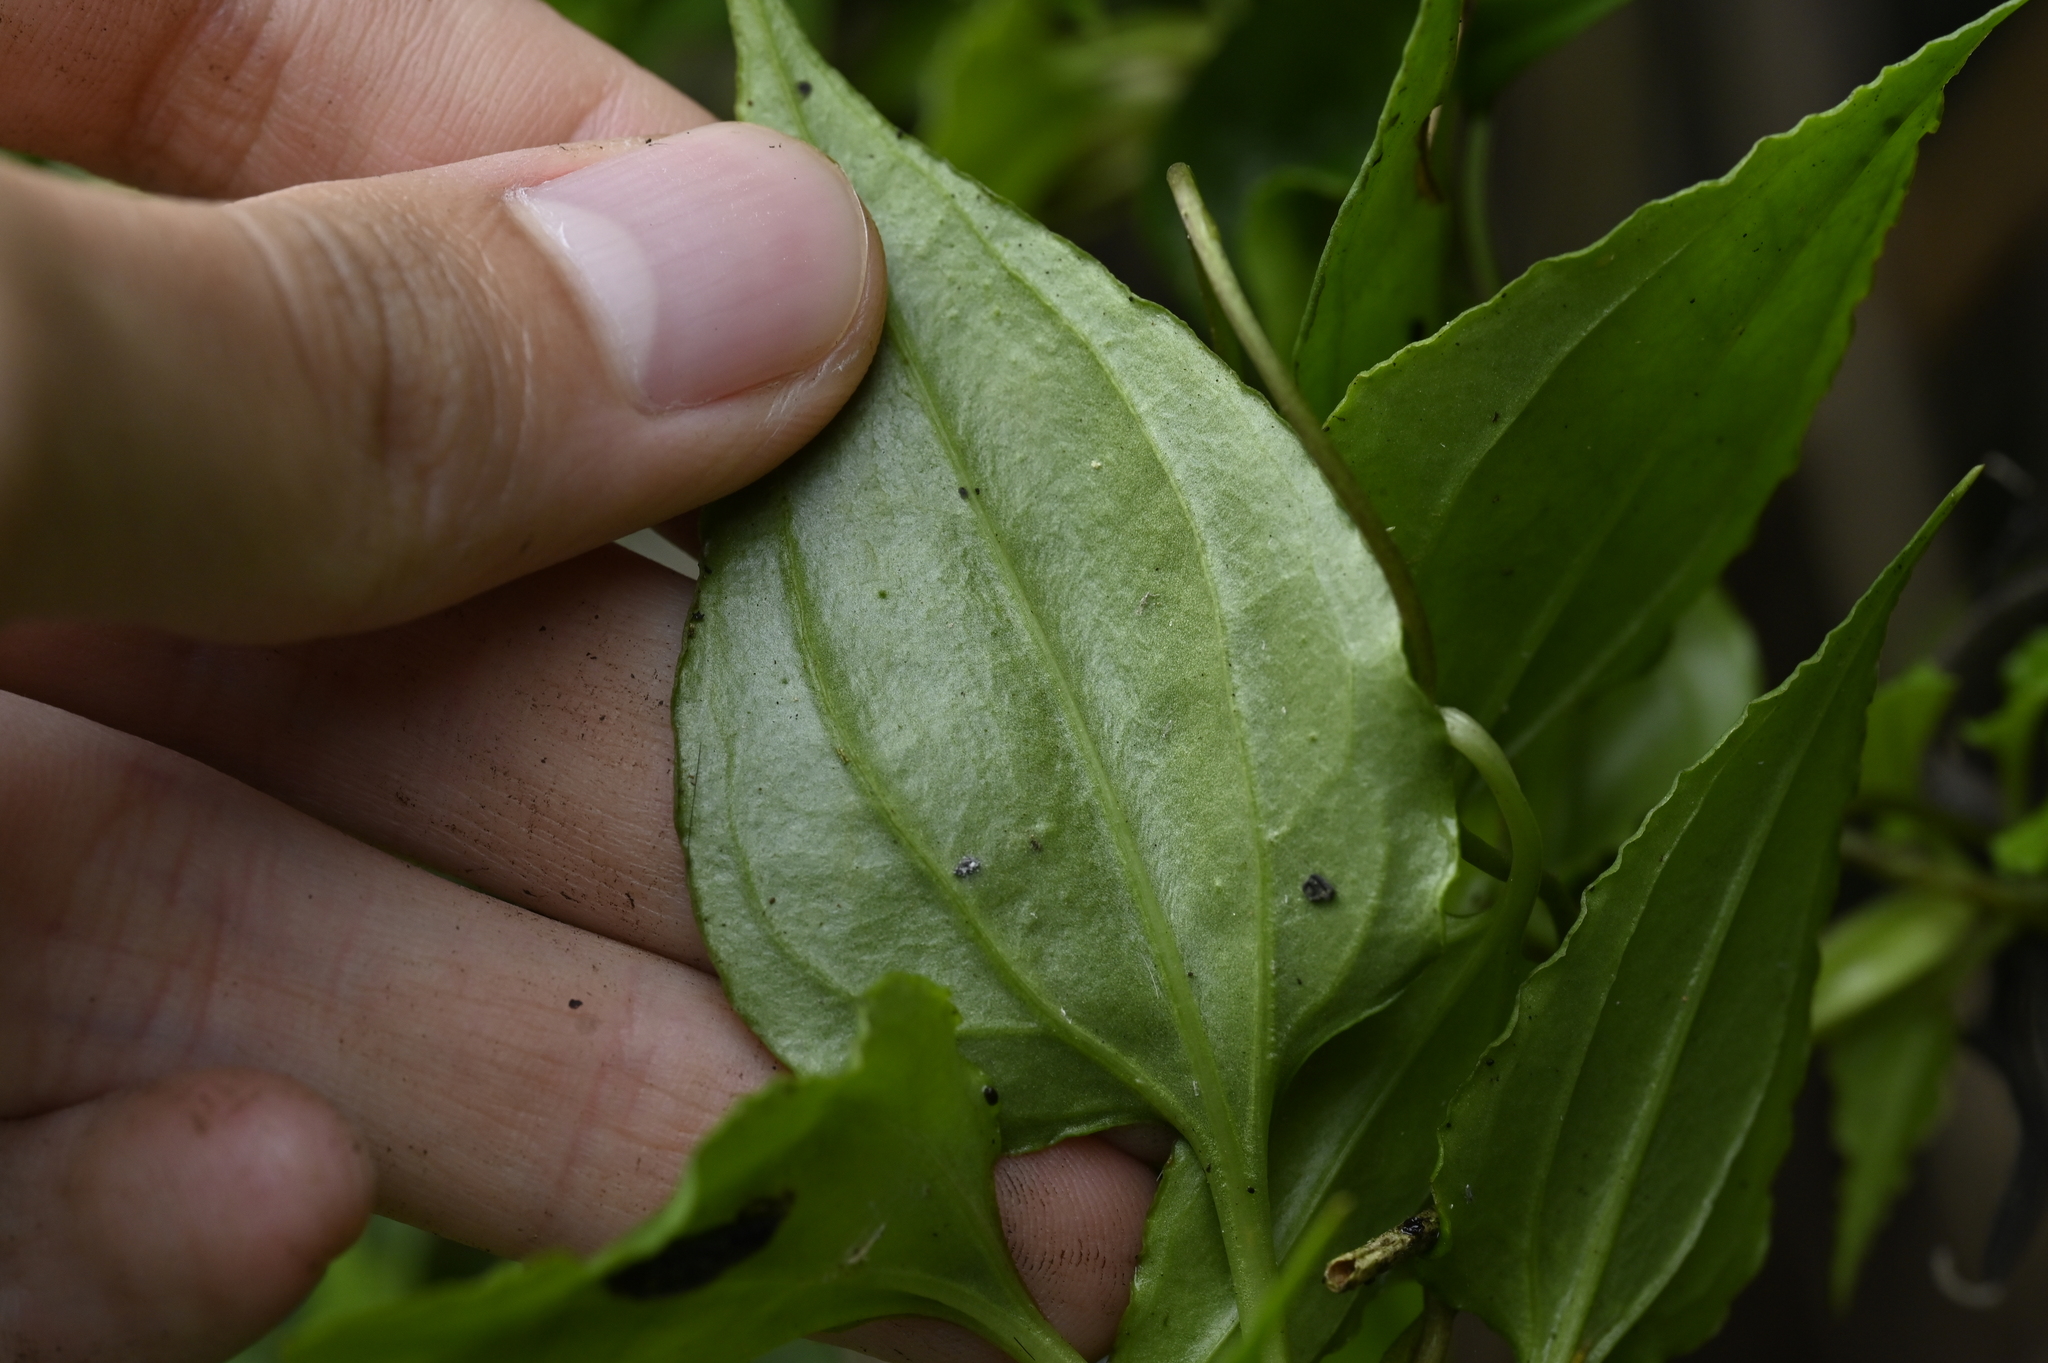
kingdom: Plantae
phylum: Tracheophyta
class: Magnoliopsida
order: Gentianales
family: Gentianaceae
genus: Tripterospermum
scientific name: Tripterospermum taiwanense
